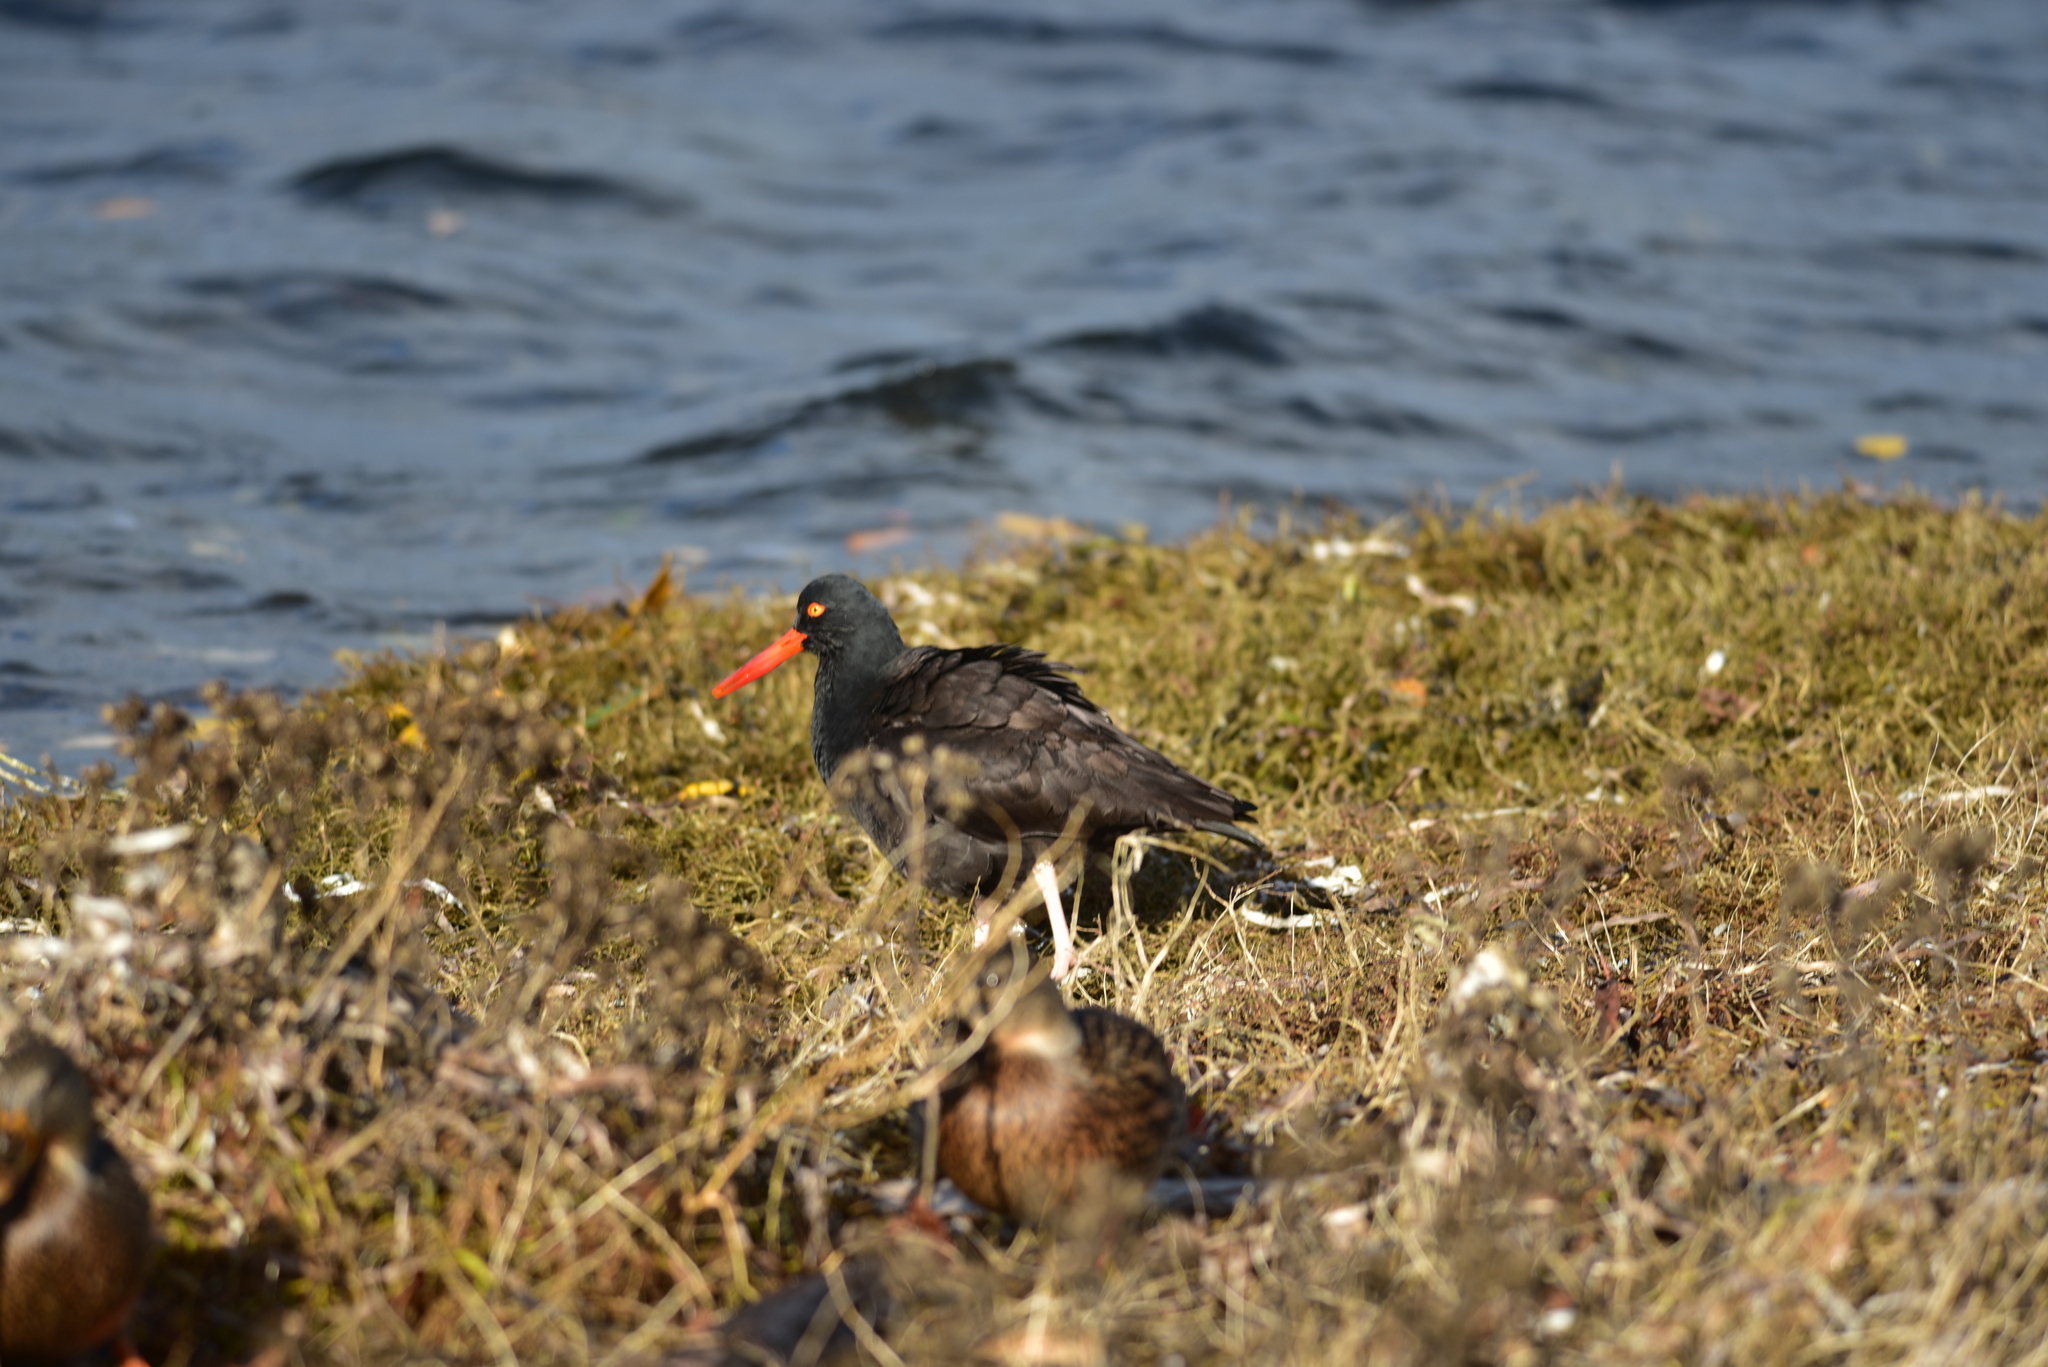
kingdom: Animalia
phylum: Chordata
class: Aves
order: Charadriiformes
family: Haematopodidae
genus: Haematopus
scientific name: Haematopus bachmani
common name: Black oystercatcher
